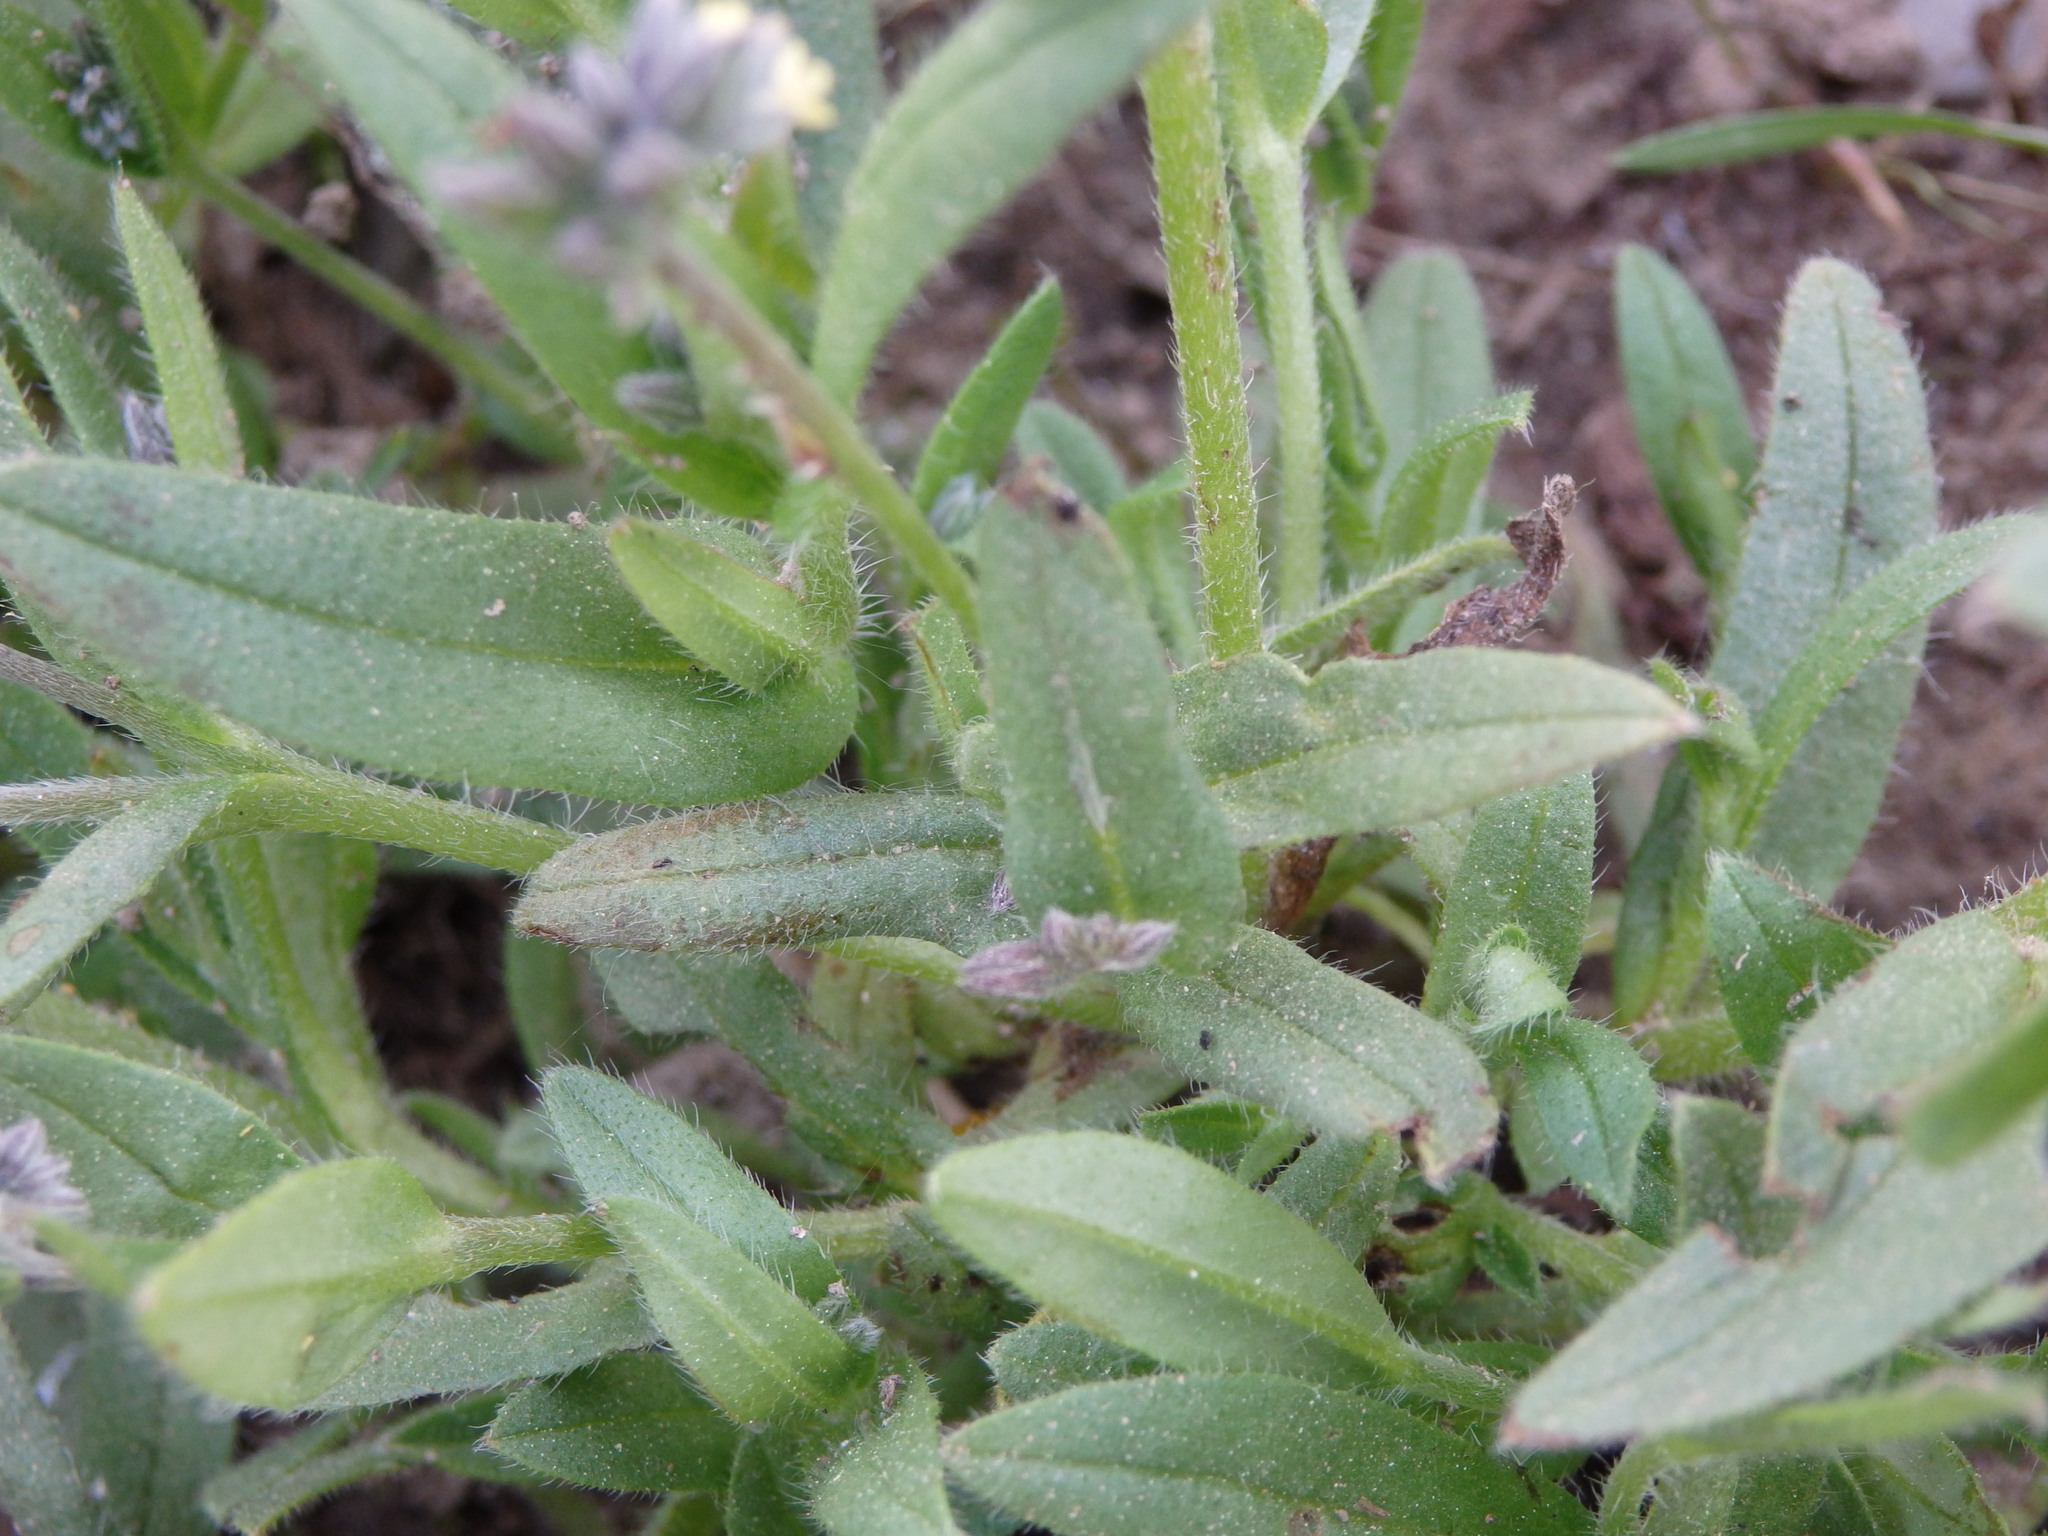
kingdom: Plantae
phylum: Tracheophyta
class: Magnoliopsida
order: Boraginales
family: Boraginaceae
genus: Myosotis
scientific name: Myosotis persoonii
